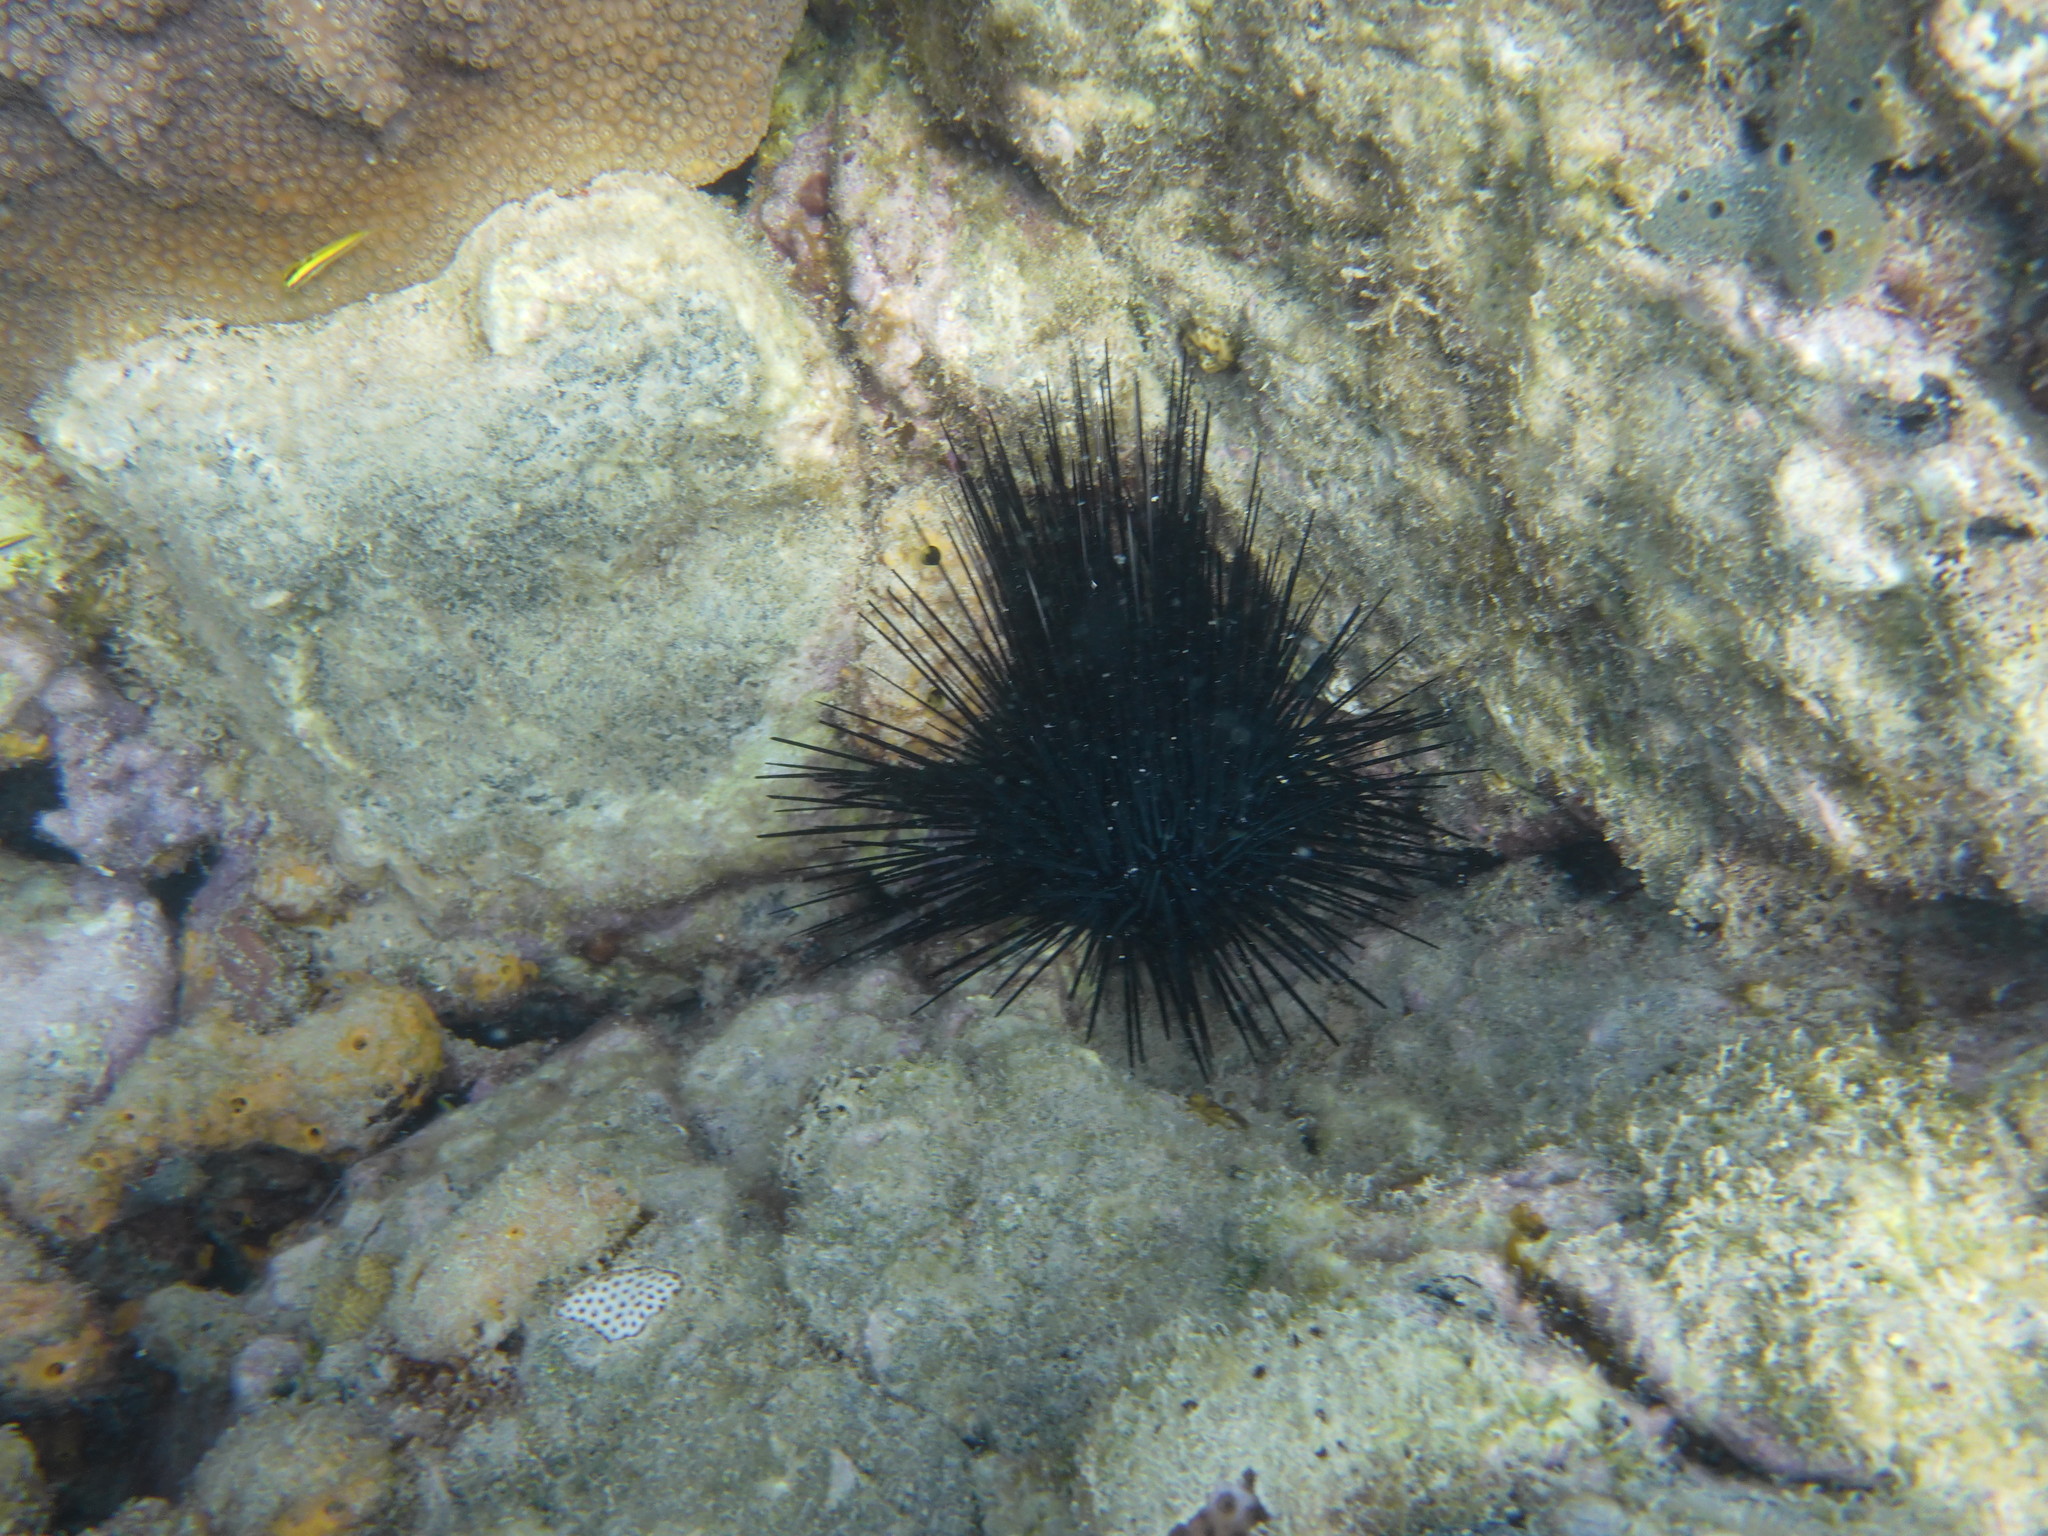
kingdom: Animalia
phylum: Echinodermata
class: Echinoidea
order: Diadematoida
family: Diadematidae
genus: Diadema
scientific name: Diadema antillarum
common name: Spiny urchin
